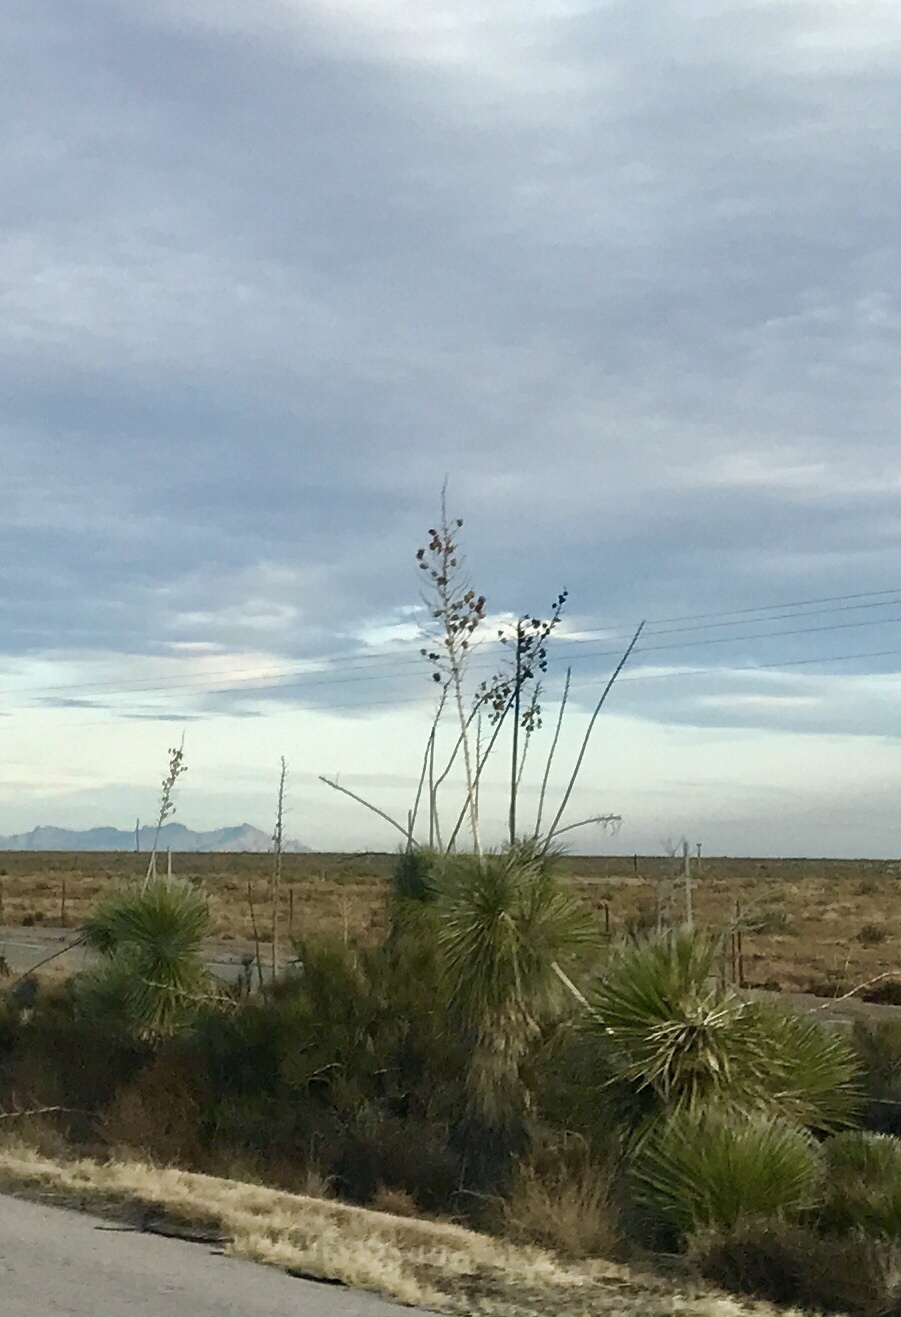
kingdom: Plantae
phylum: Tracheophyta
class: Liliopsida
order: Asparagales
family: Asparagaceae
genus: Yucca
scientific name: Yucca elata
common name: Palmella
